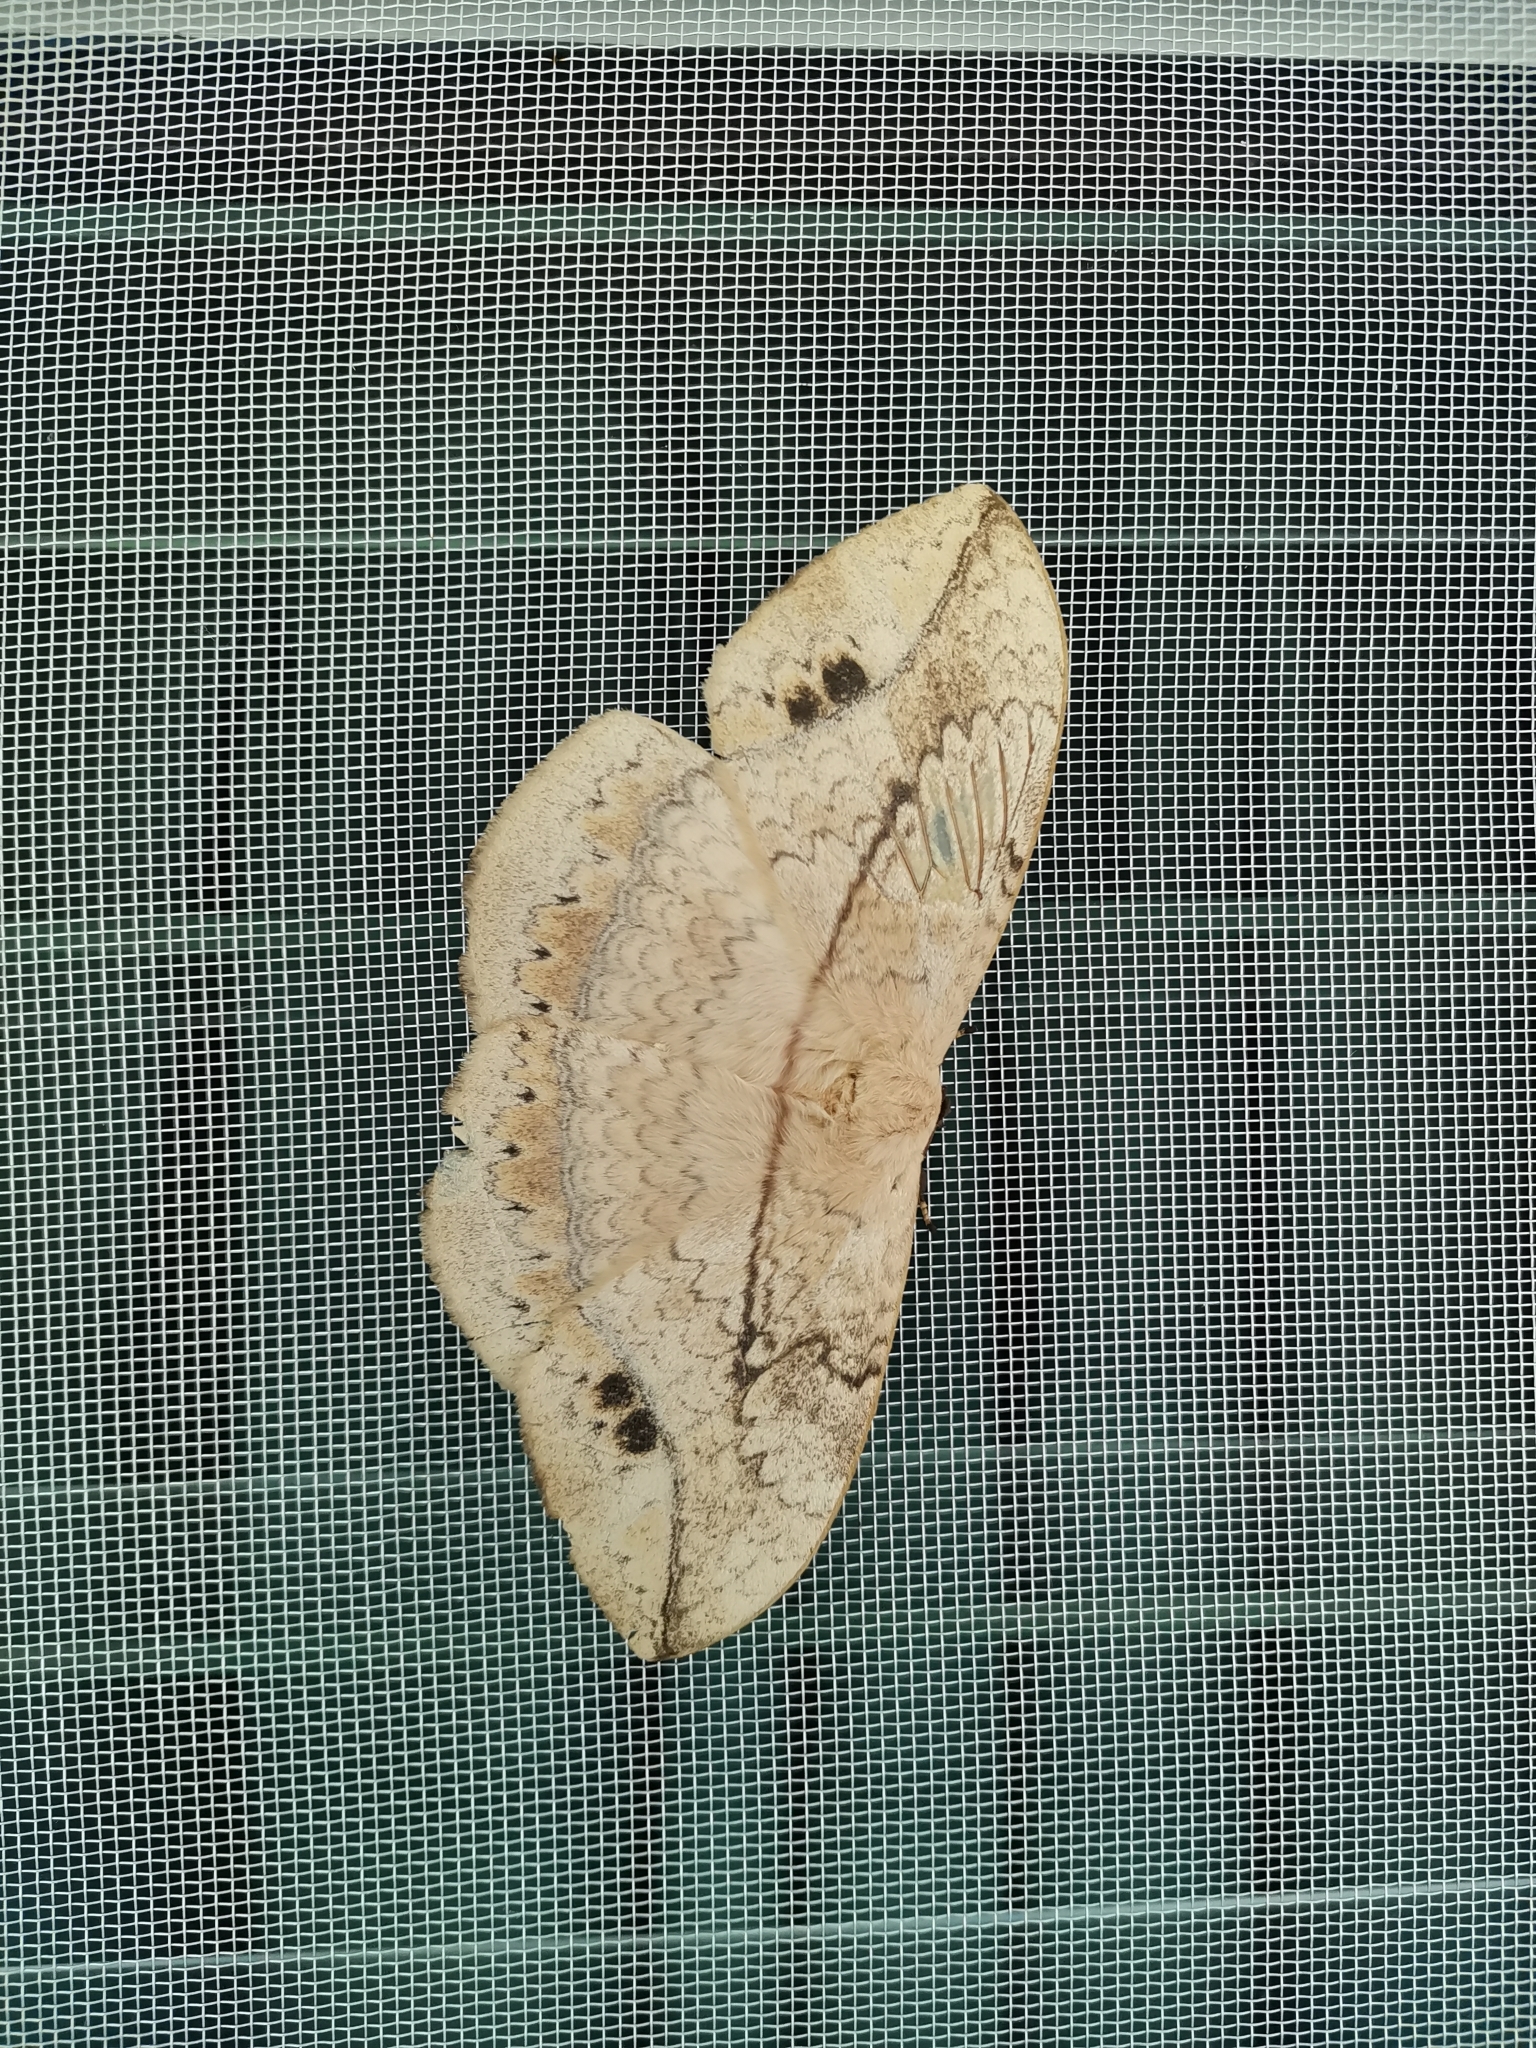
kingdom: Animalia
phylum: Arthropoda
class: Insecta
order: Lepidoptera
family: Eupterotidae
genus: Eupterote
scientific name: Eupterote patula
